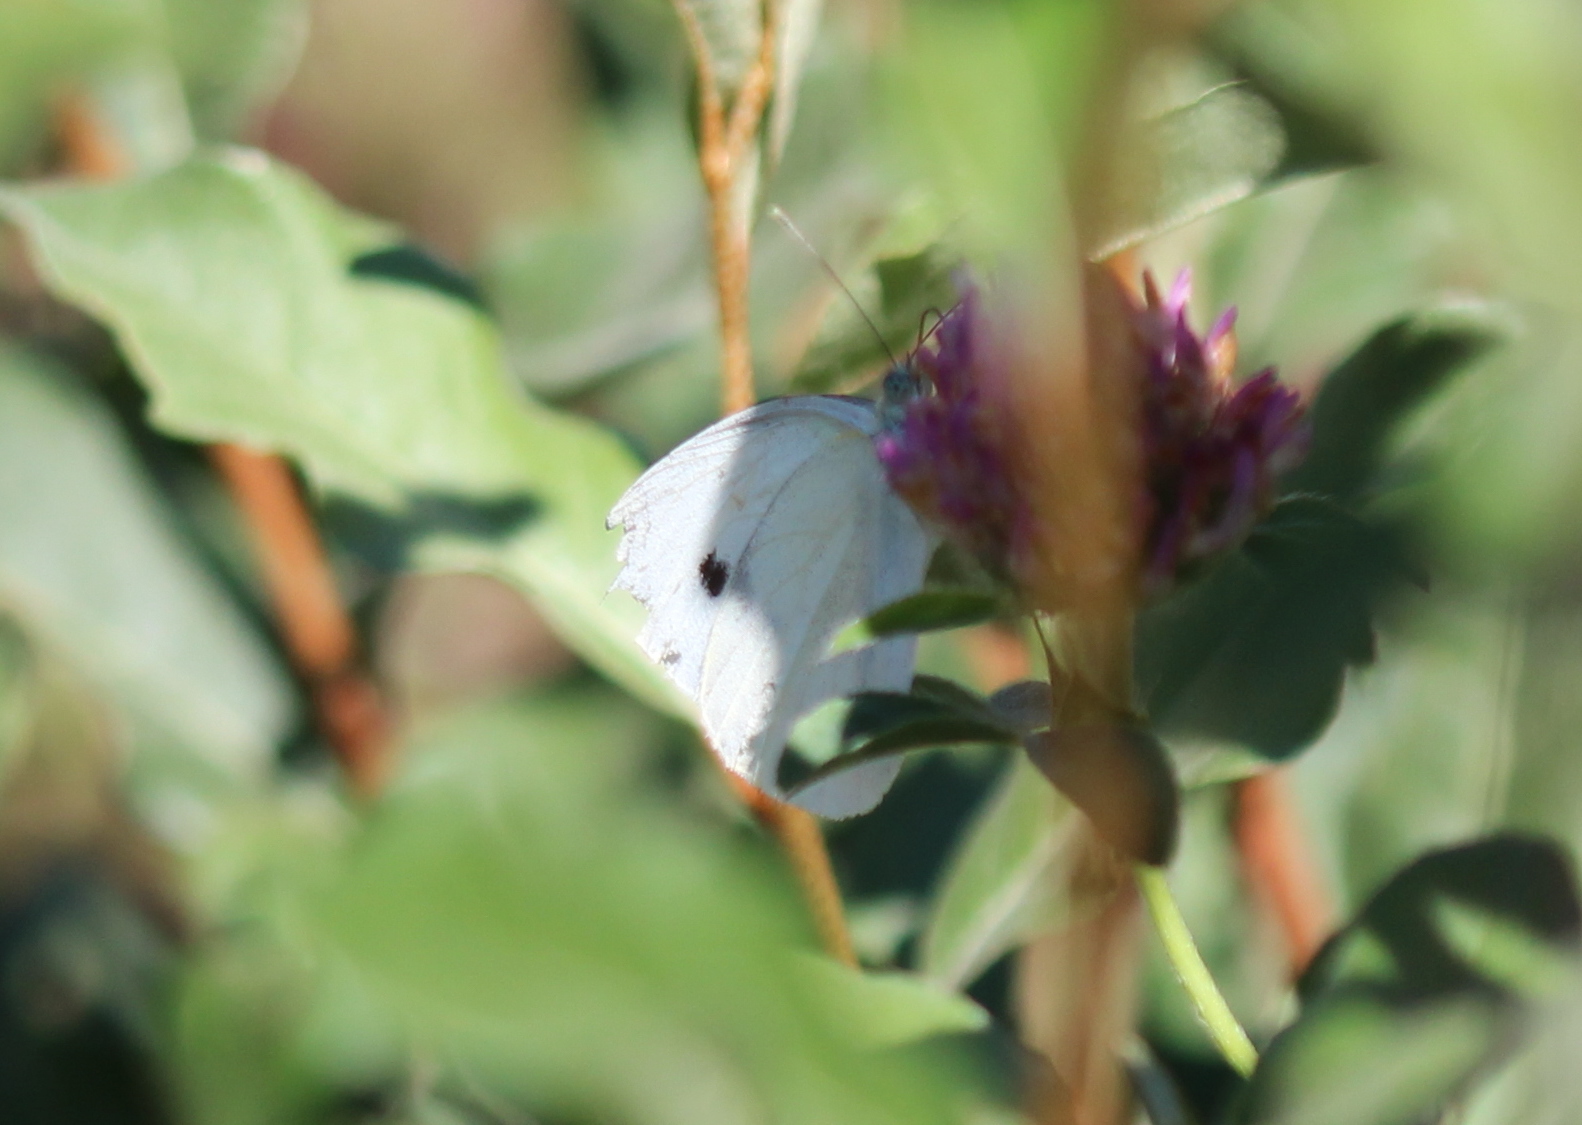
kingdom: Animalia
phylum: Arthropoda
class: Insecta
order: Lepidoptera
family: Pieridae
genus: Pieris
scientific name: Pieris rapae
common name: Small white
